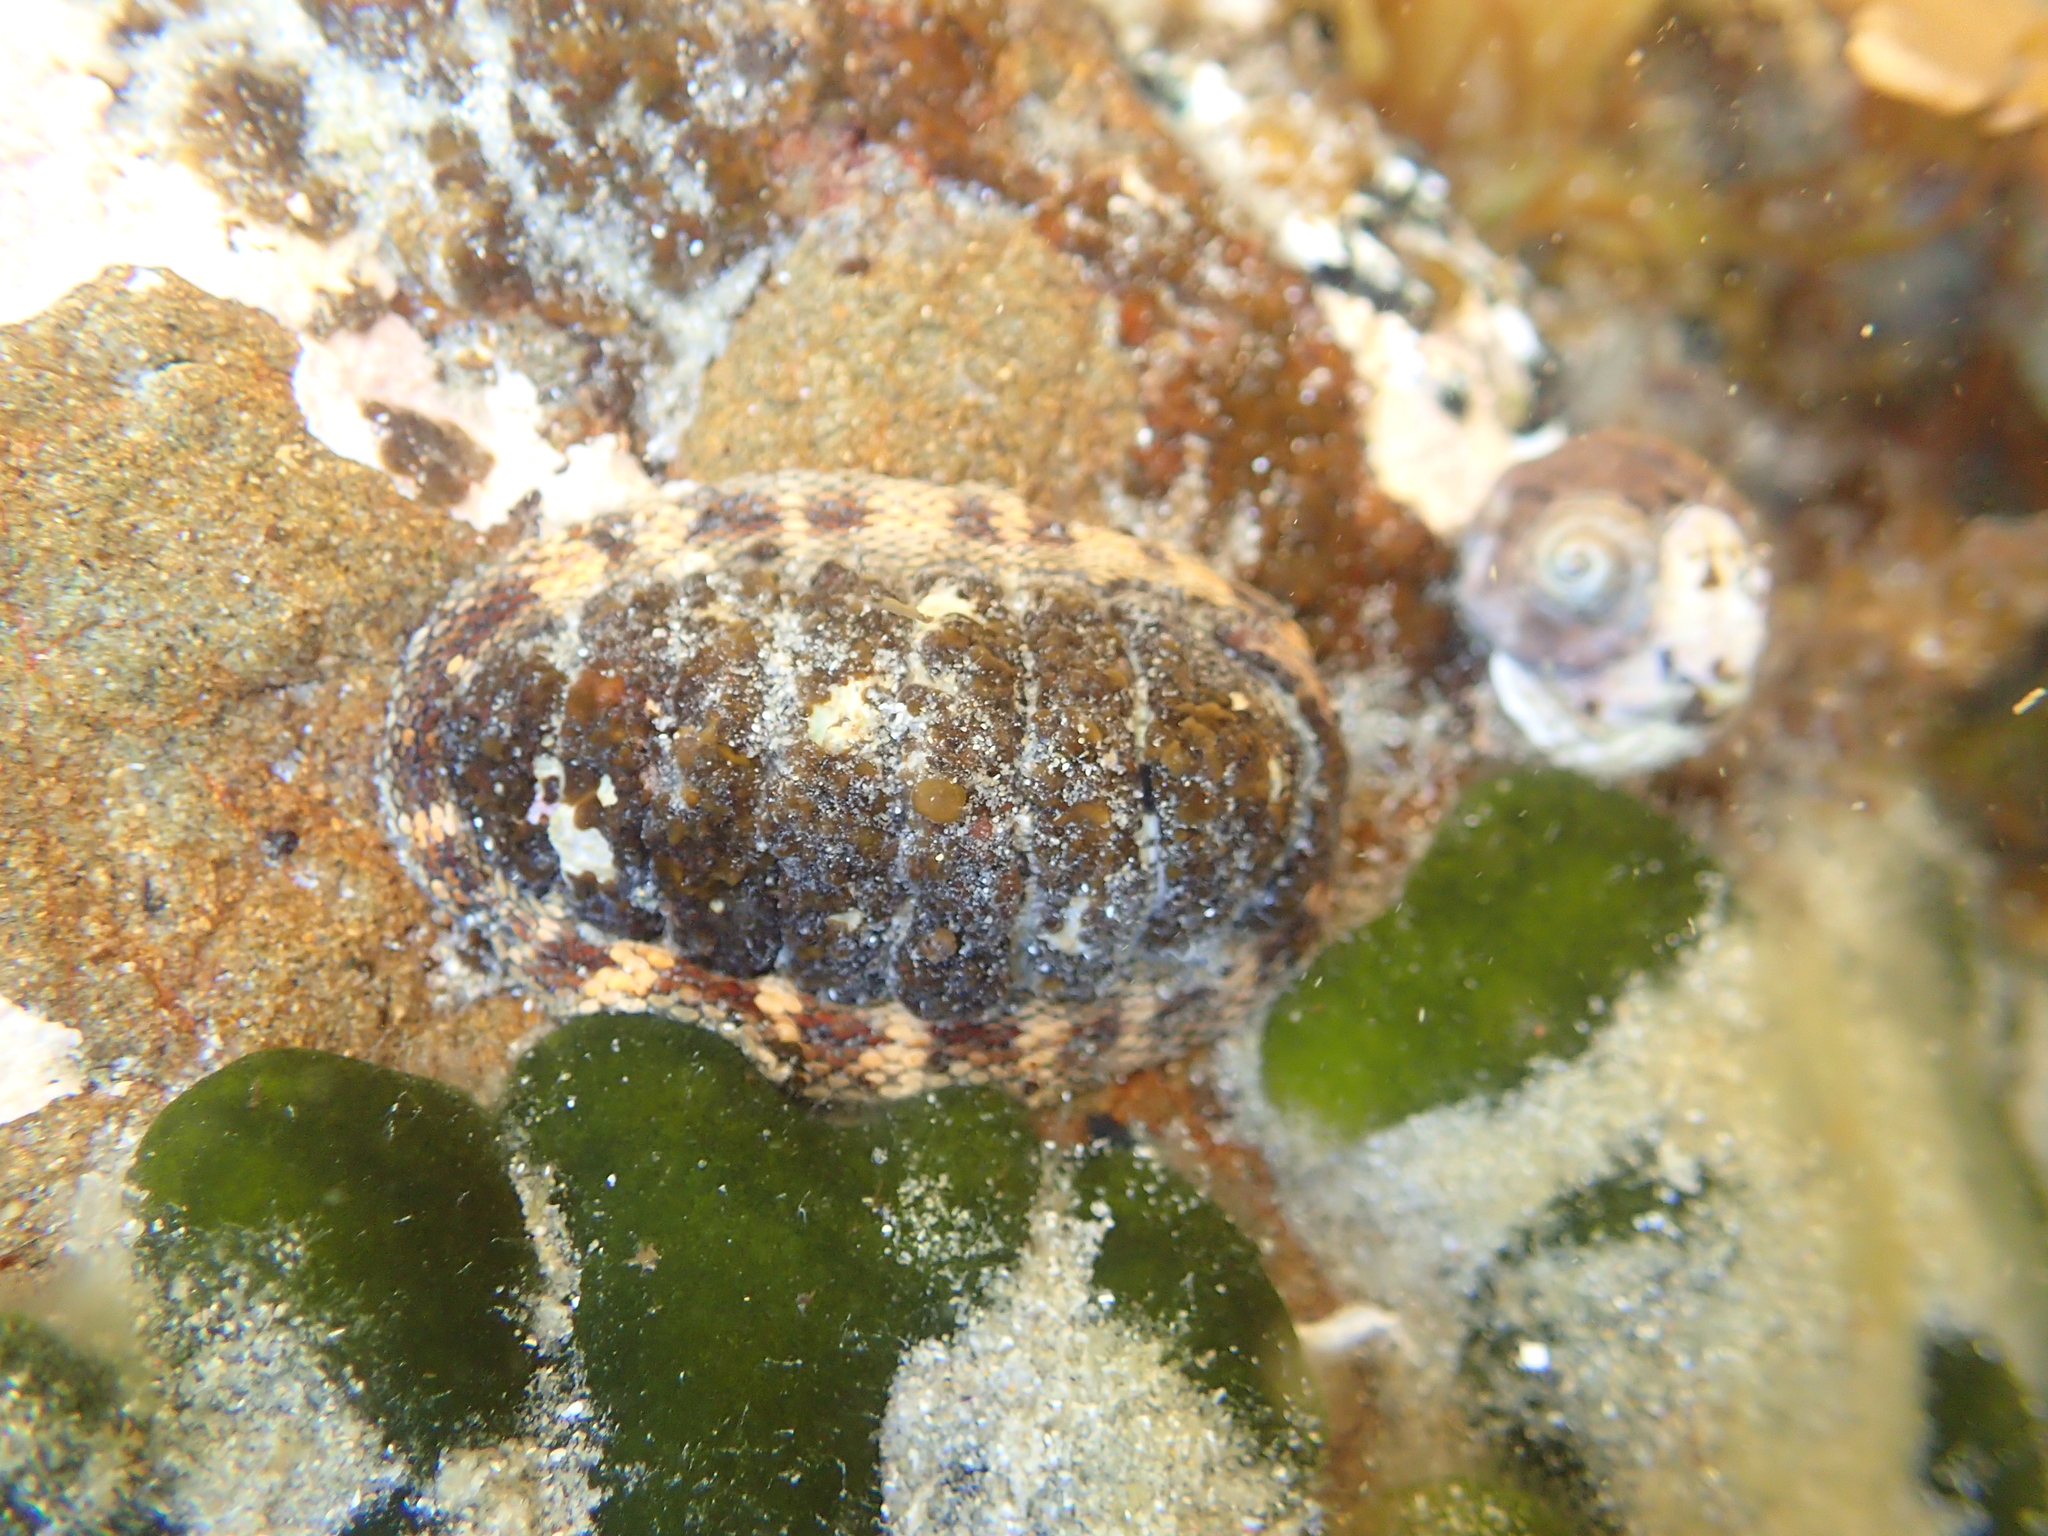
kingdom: Animalia
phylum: Mollusca
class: Polyplacophora
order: Chitonida
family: Chitonidae
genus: Sypharochiton
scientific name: Sypharochiton pelliserpentis
